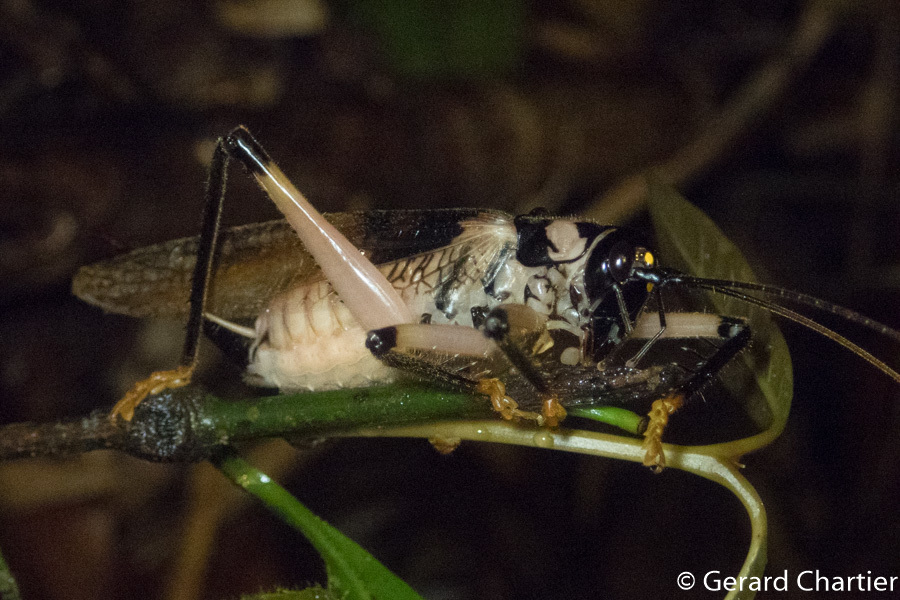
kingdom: Animalia
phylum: Arthropoda
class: Insecta
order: Orthoptera
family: Gryllacrididae
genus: Capnogryllacris
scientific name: Capnogryllacris khmerica
